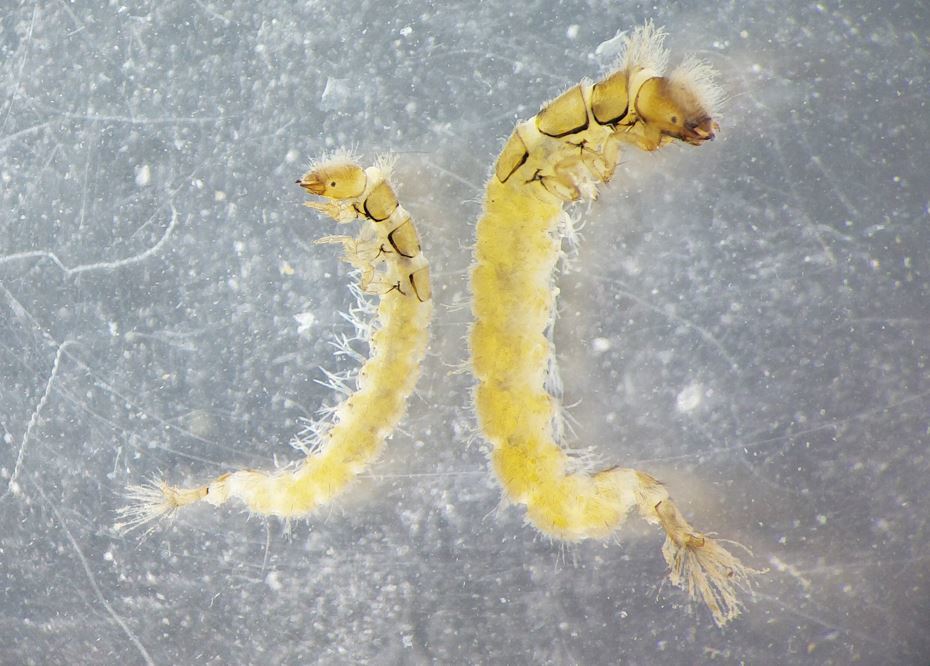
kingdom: Animalia
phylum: Arthropoda
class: Insecta
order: Trichoptera
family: Hydropsychidae
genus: Cheumatopsyche
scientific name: Cheumatopsyche lepida
